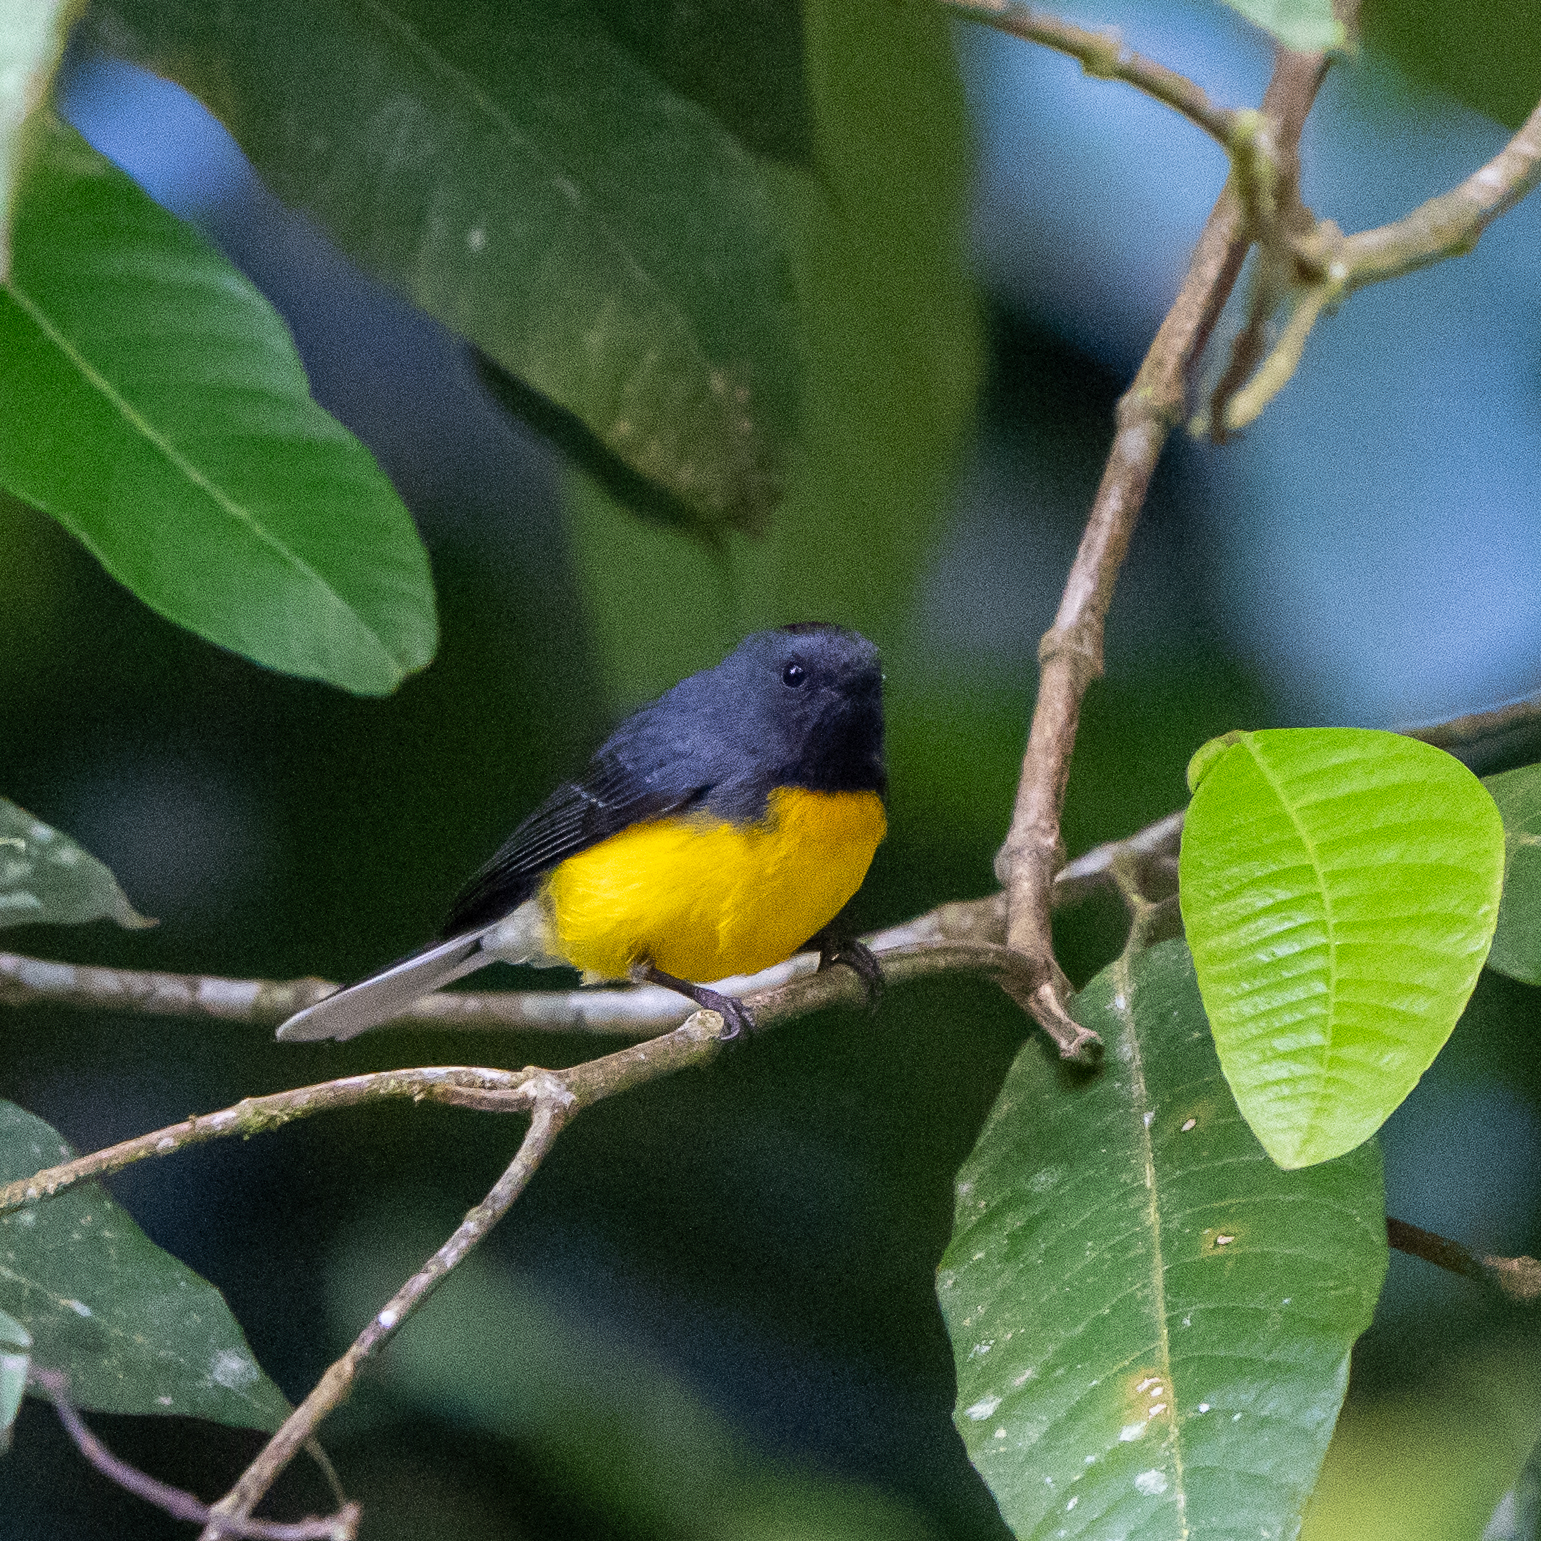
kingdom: Animalia
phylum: Chordata
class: Aves
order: Passeriformes
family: Parulidae
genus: Myioborus
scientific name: Myioborus miniatus
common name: Slate-throated redstart
